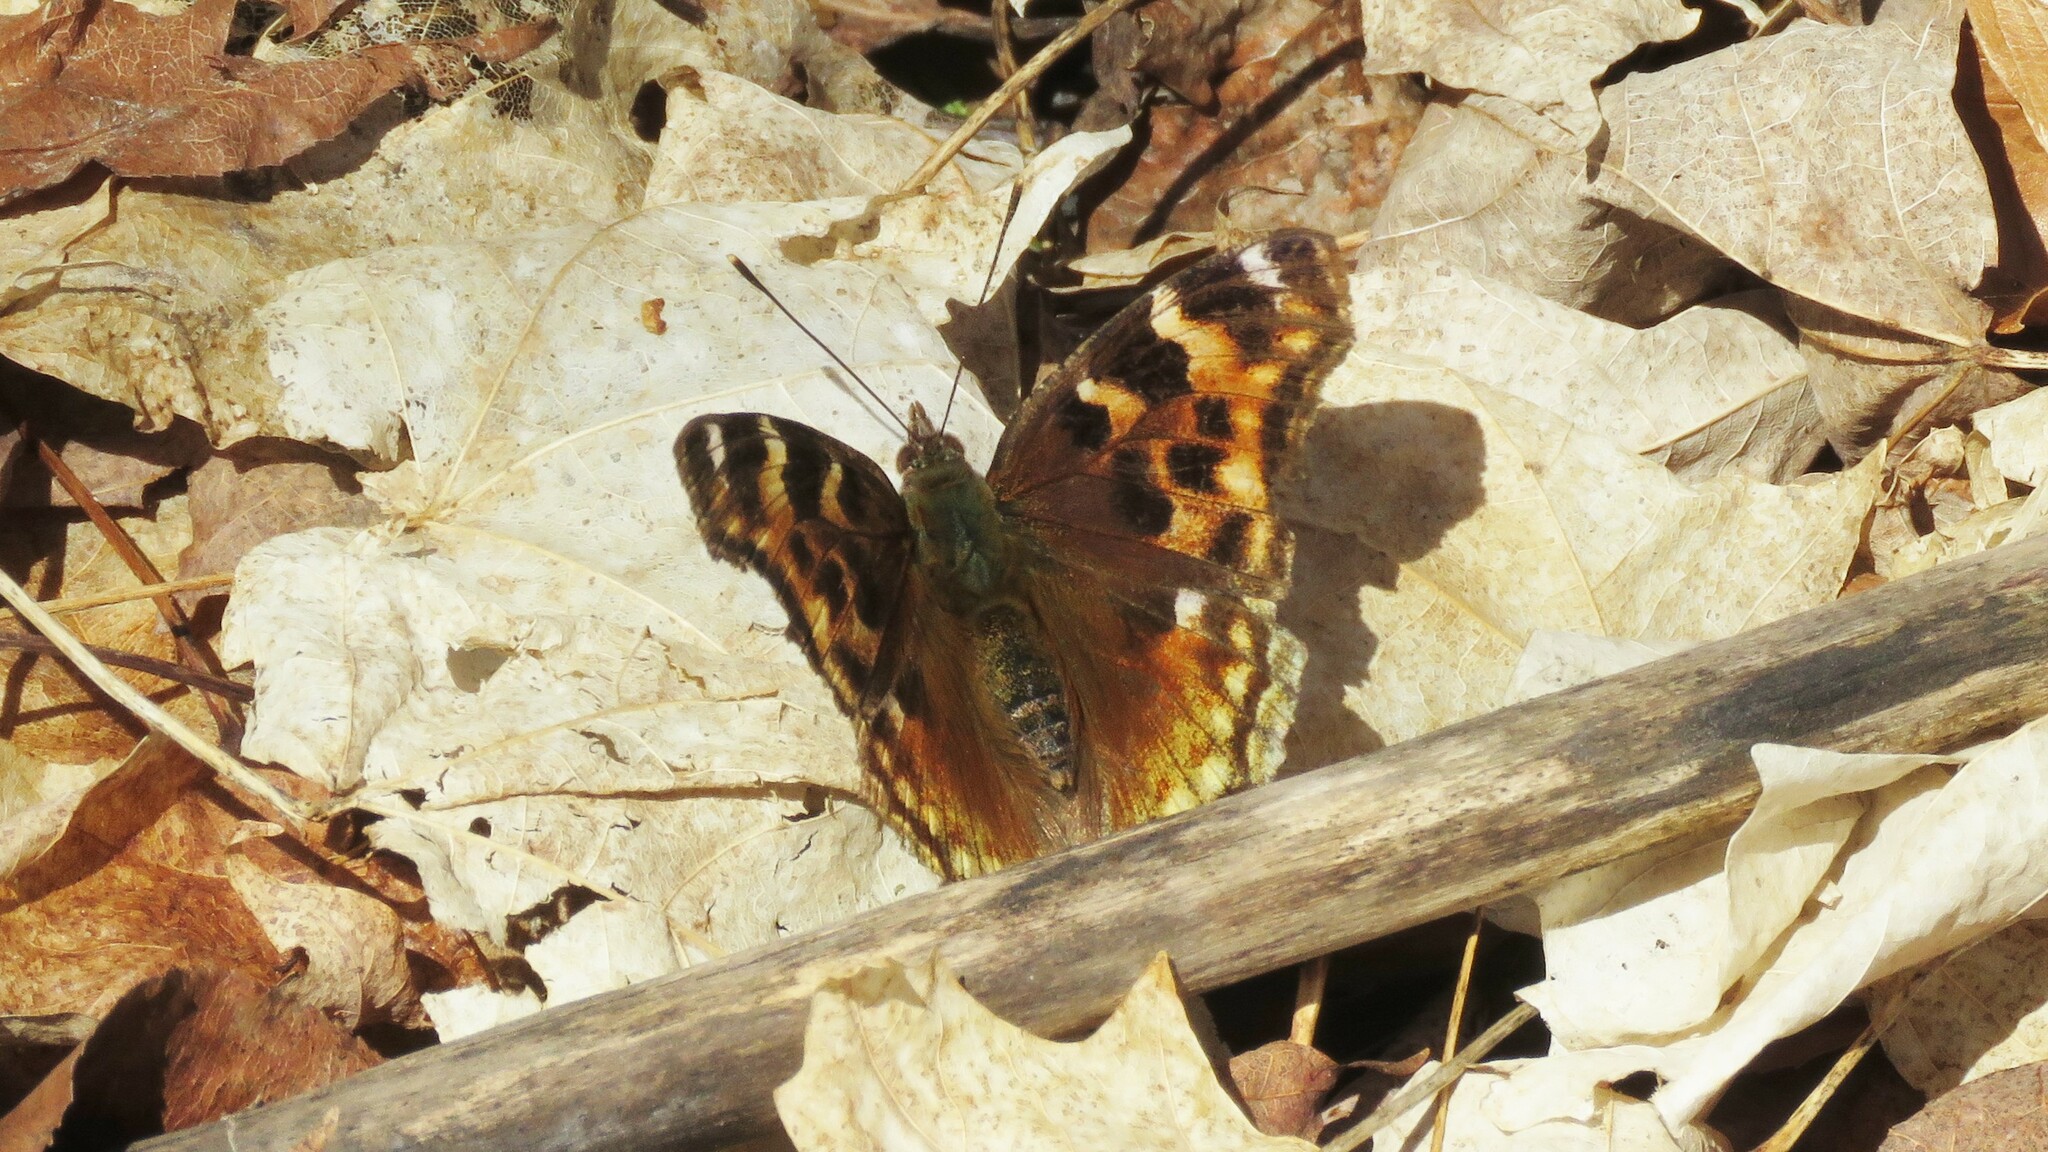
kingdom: Animalia
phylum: Arthropoda
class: Insecta
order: Lepidoptera
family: Nymphalidae
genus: Polygonia
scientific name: Polygonia vaualbum
